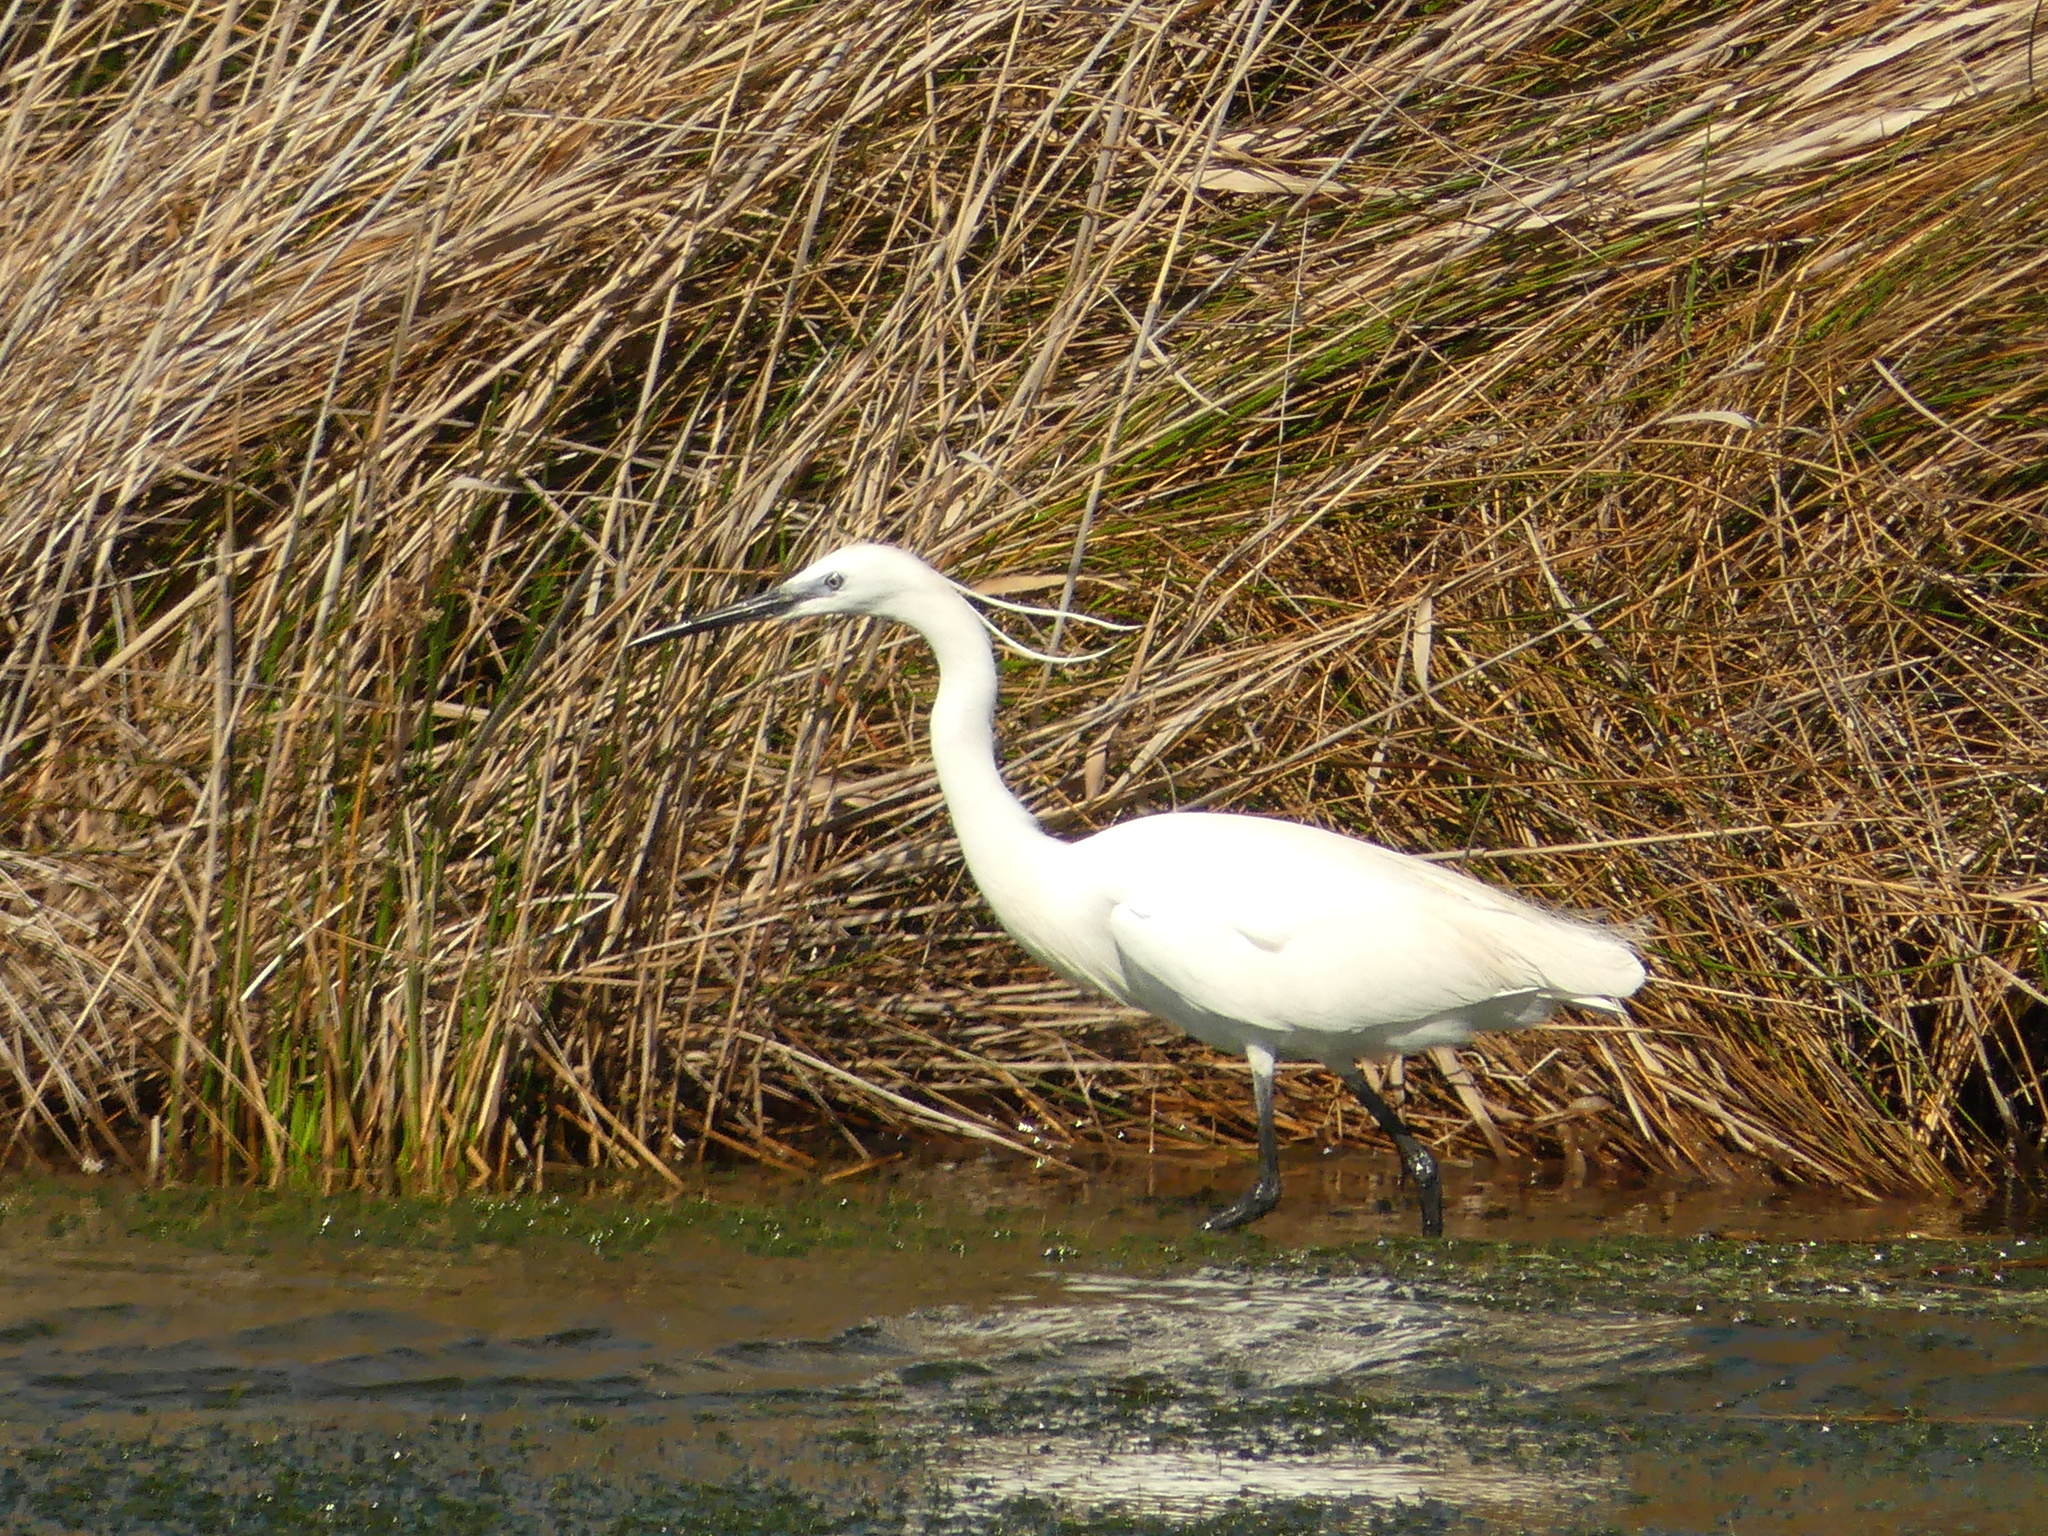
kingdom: Animalia
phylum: Chordata
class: Aves
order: Pelecaniformes
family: Ardeidae
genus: Egretta
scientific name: Egretta garzetta
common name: Little egret
